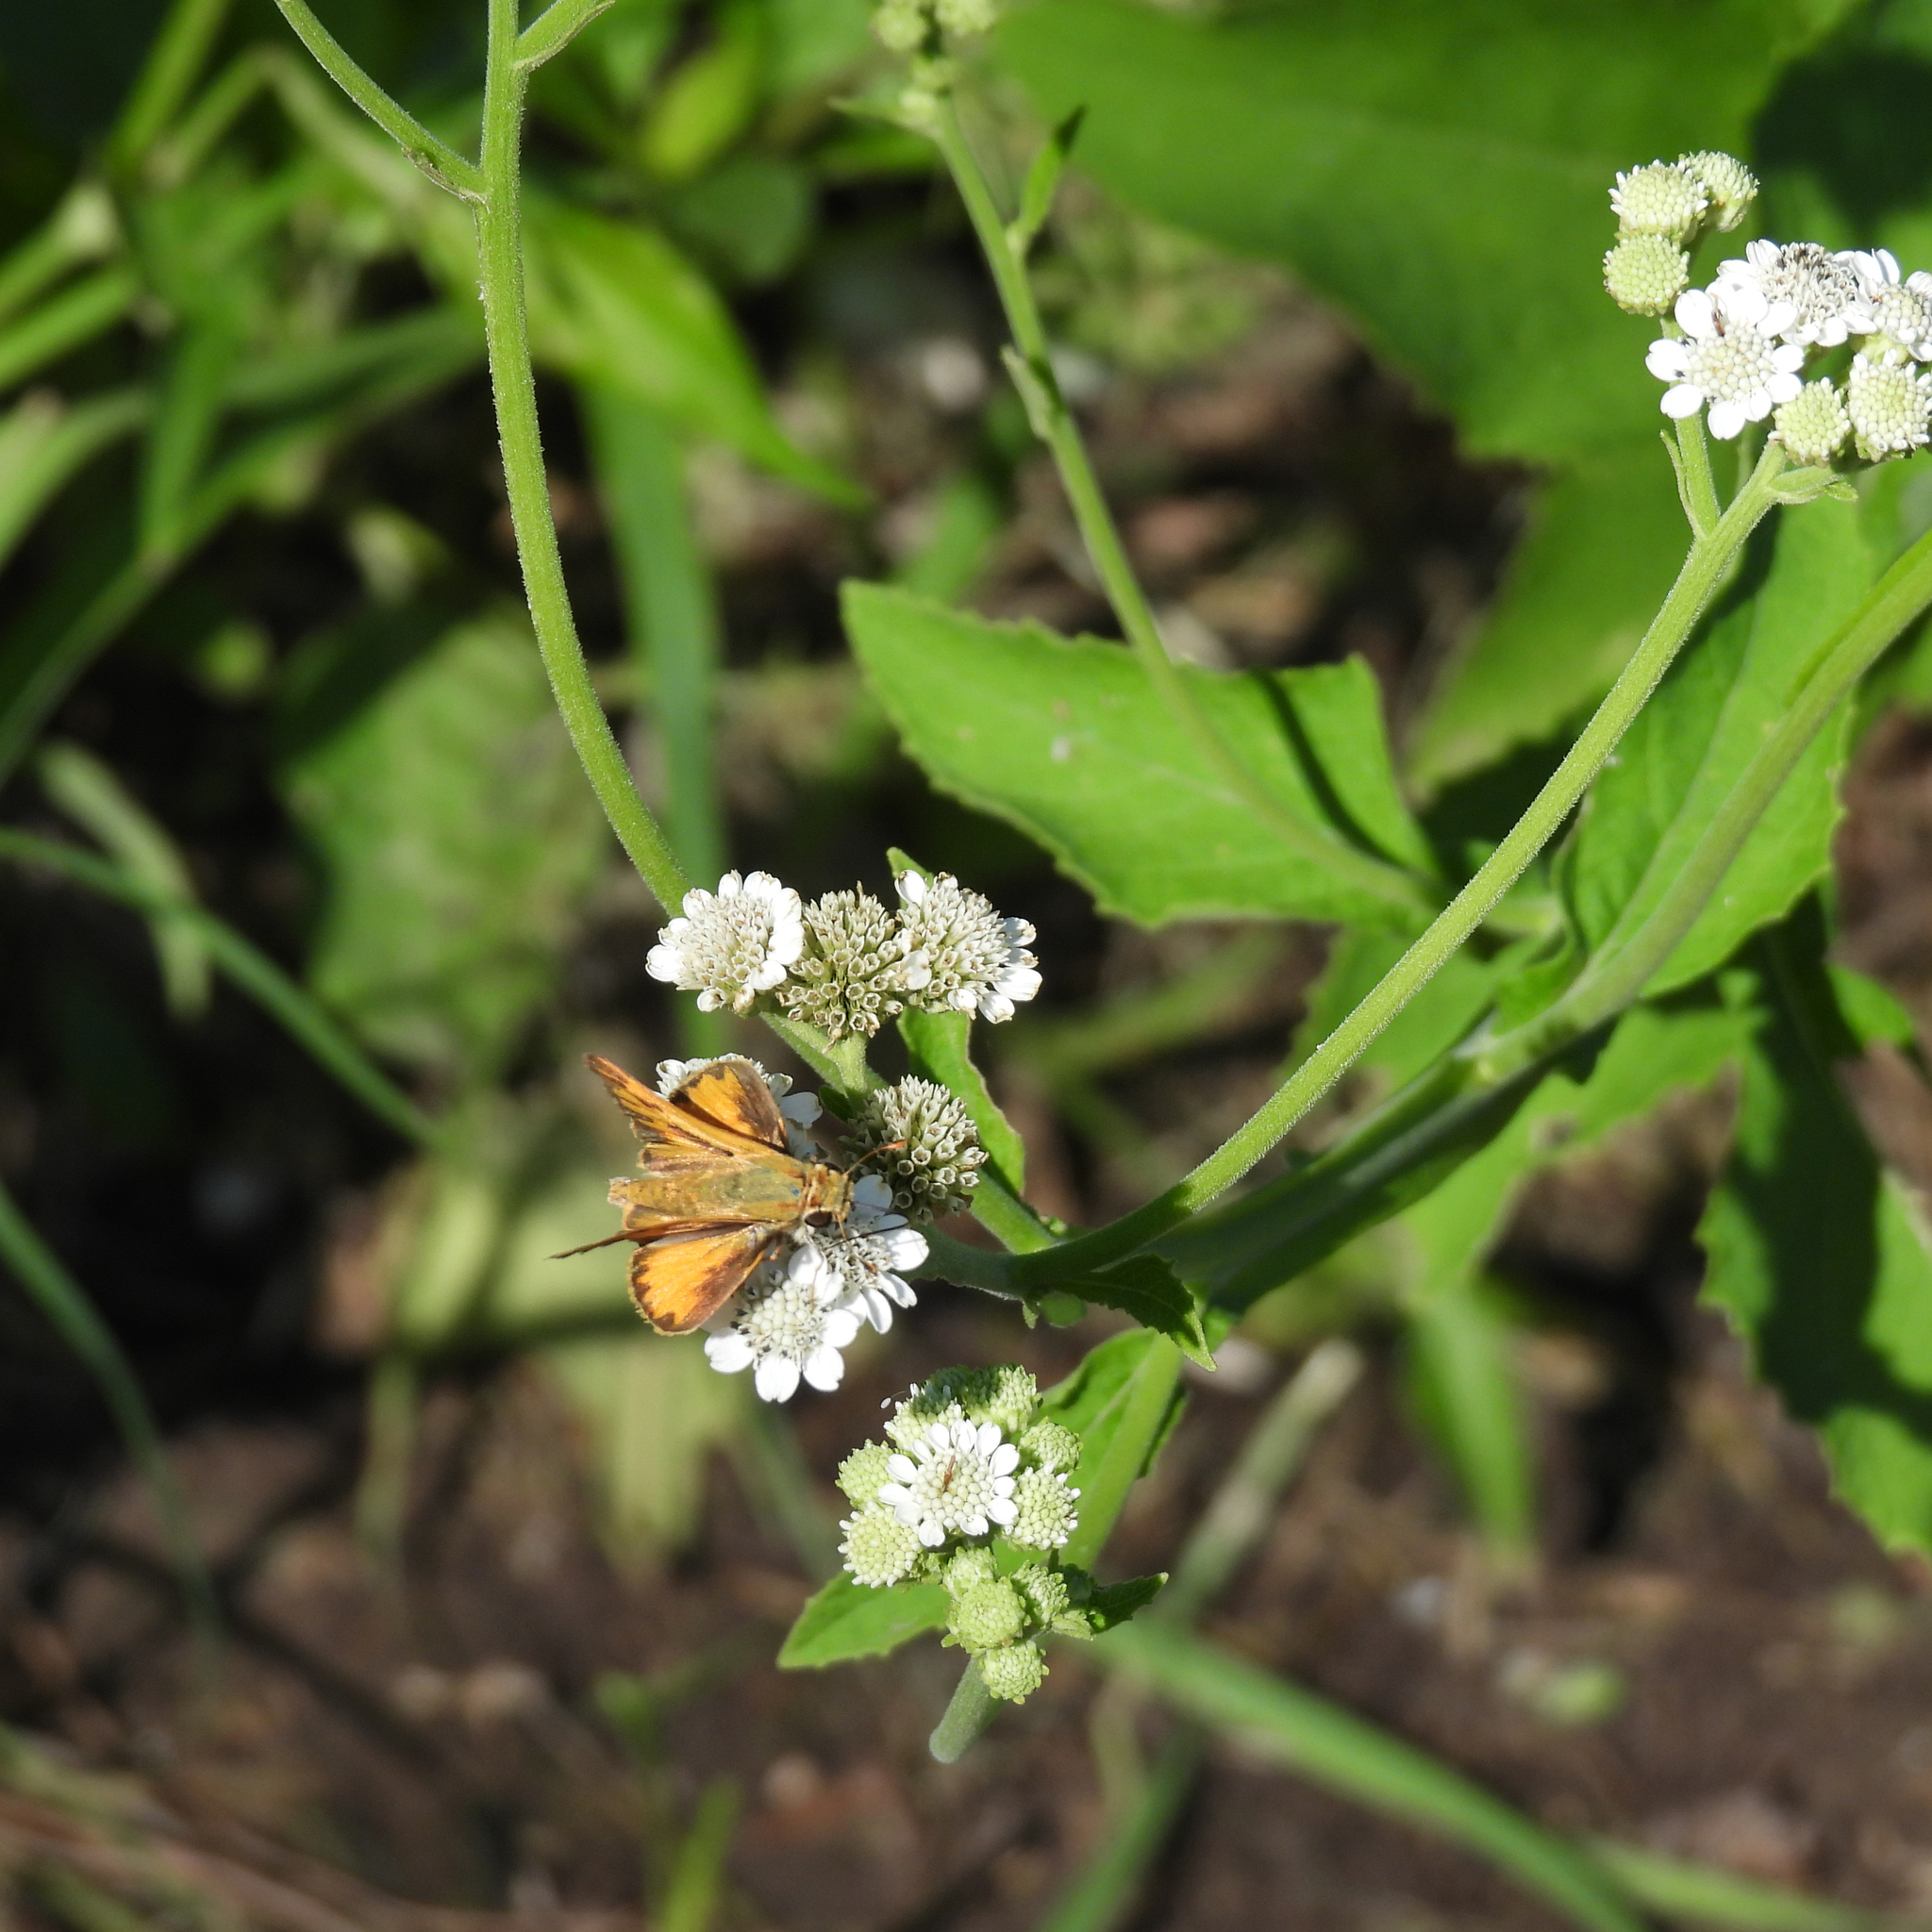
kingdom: Animalia
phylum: Arthropoda
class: Insecta
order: Lepidoptera
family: Hesperiidae
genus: Hylephila
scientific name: Hylephila phyleus
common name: Fiery skipper
